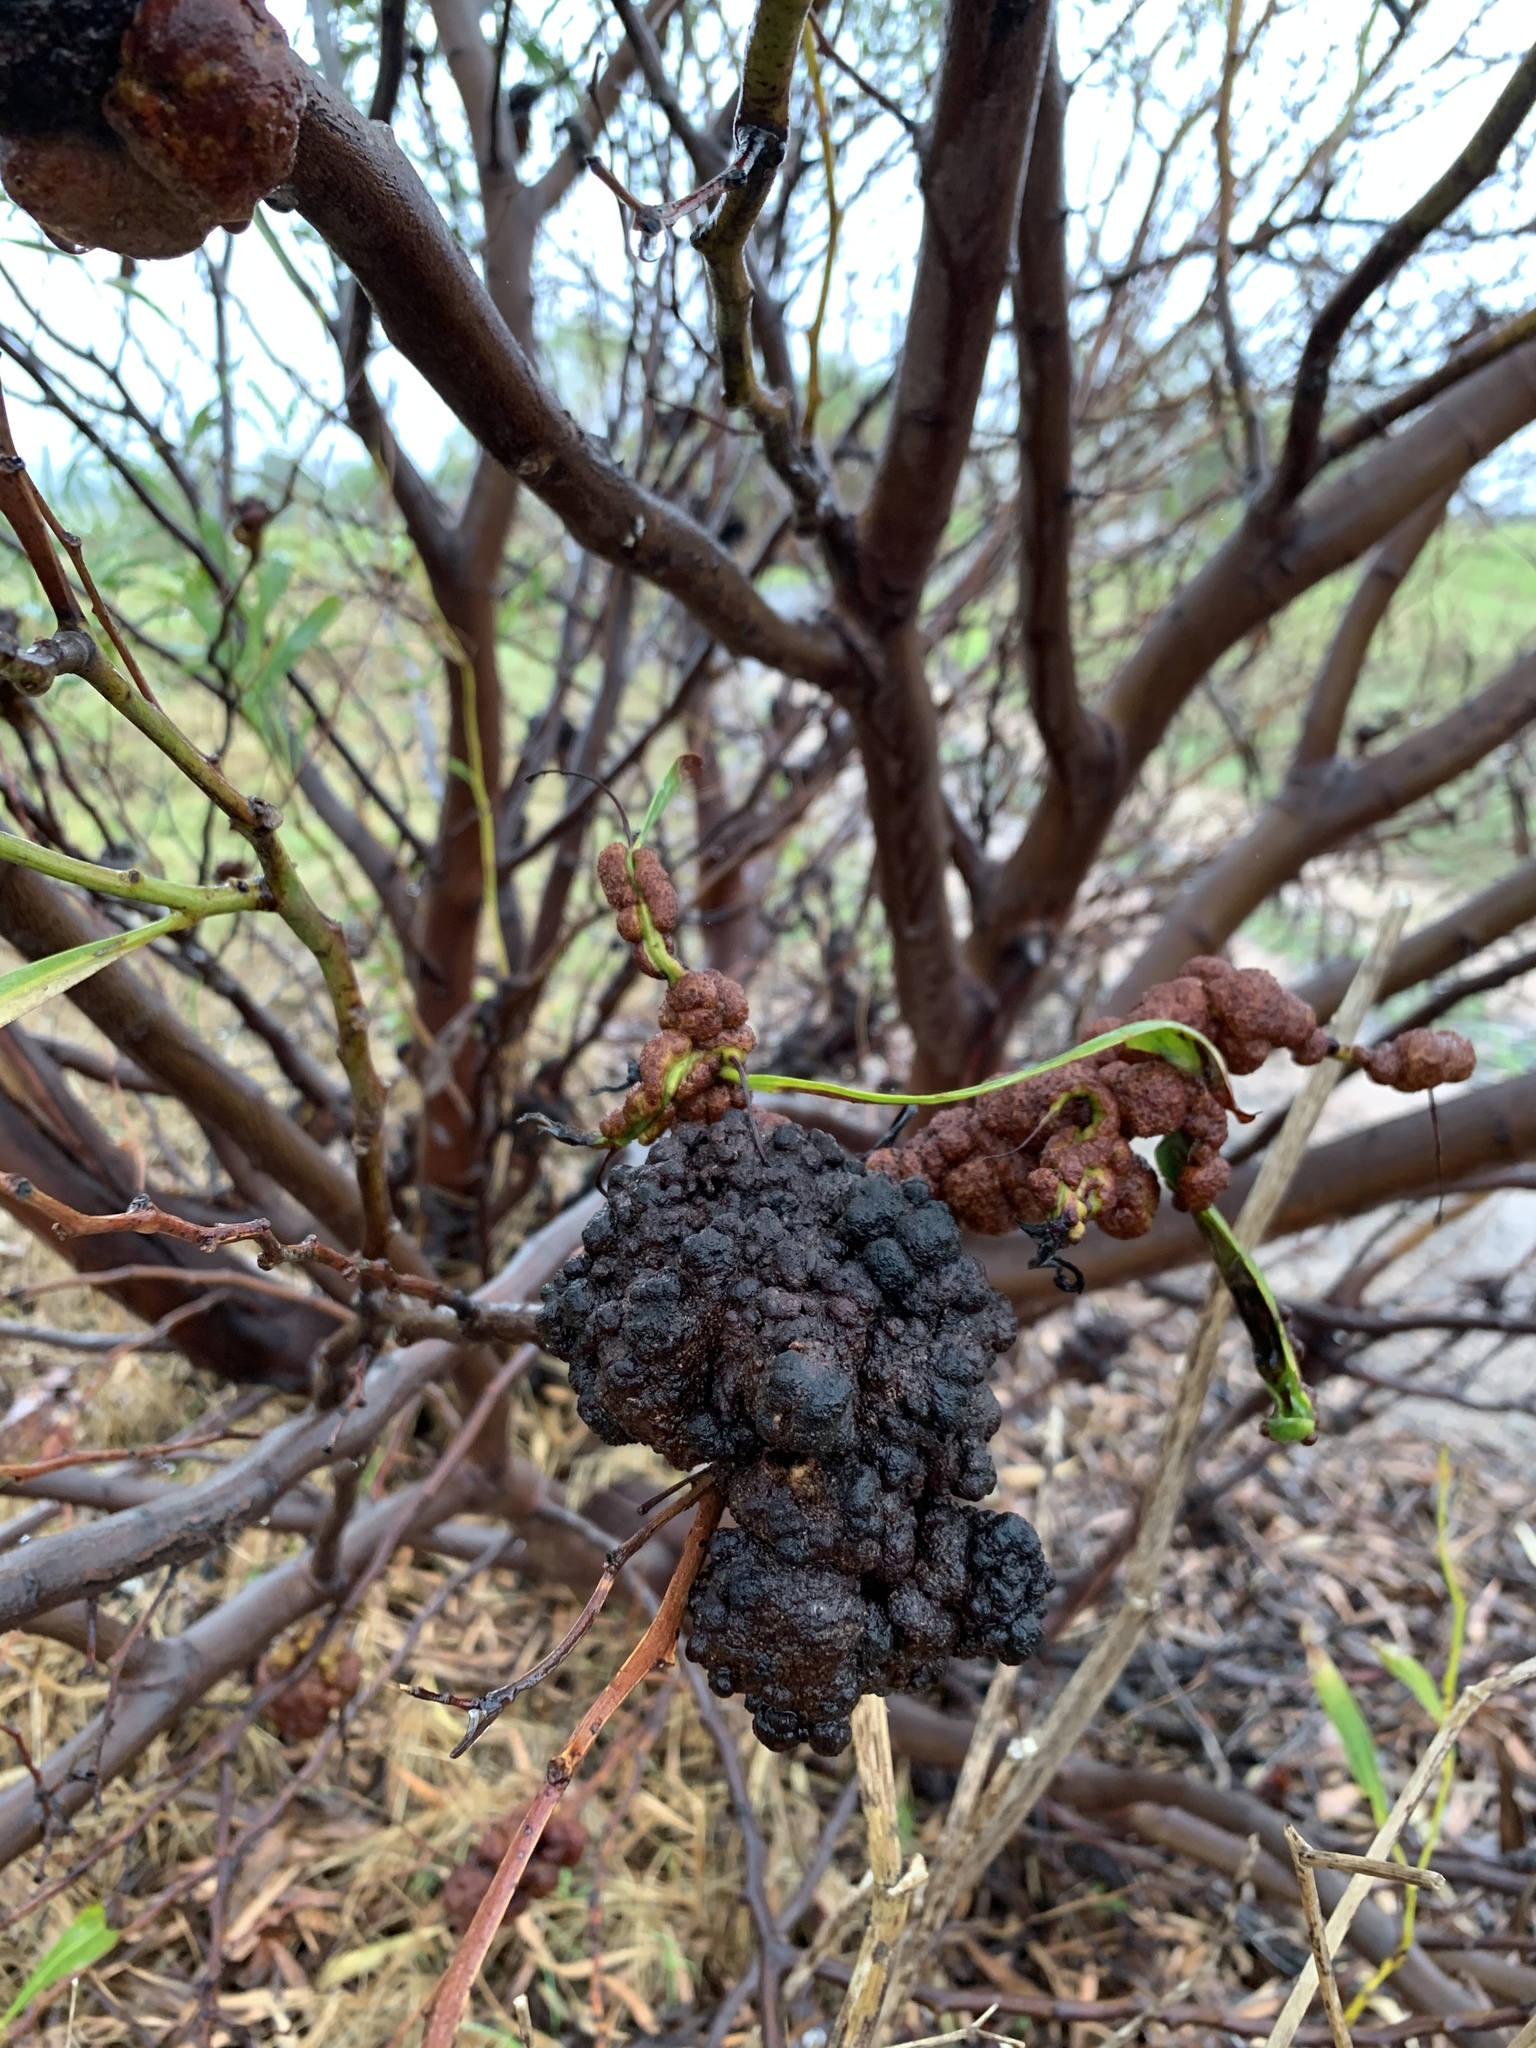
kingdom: Fungi
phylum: Basidiomycota
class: Pucciniomycetes
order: Pucciniales
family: Uromycladiaceae
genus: Uromycladium
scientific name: Uromycladium morrisii
